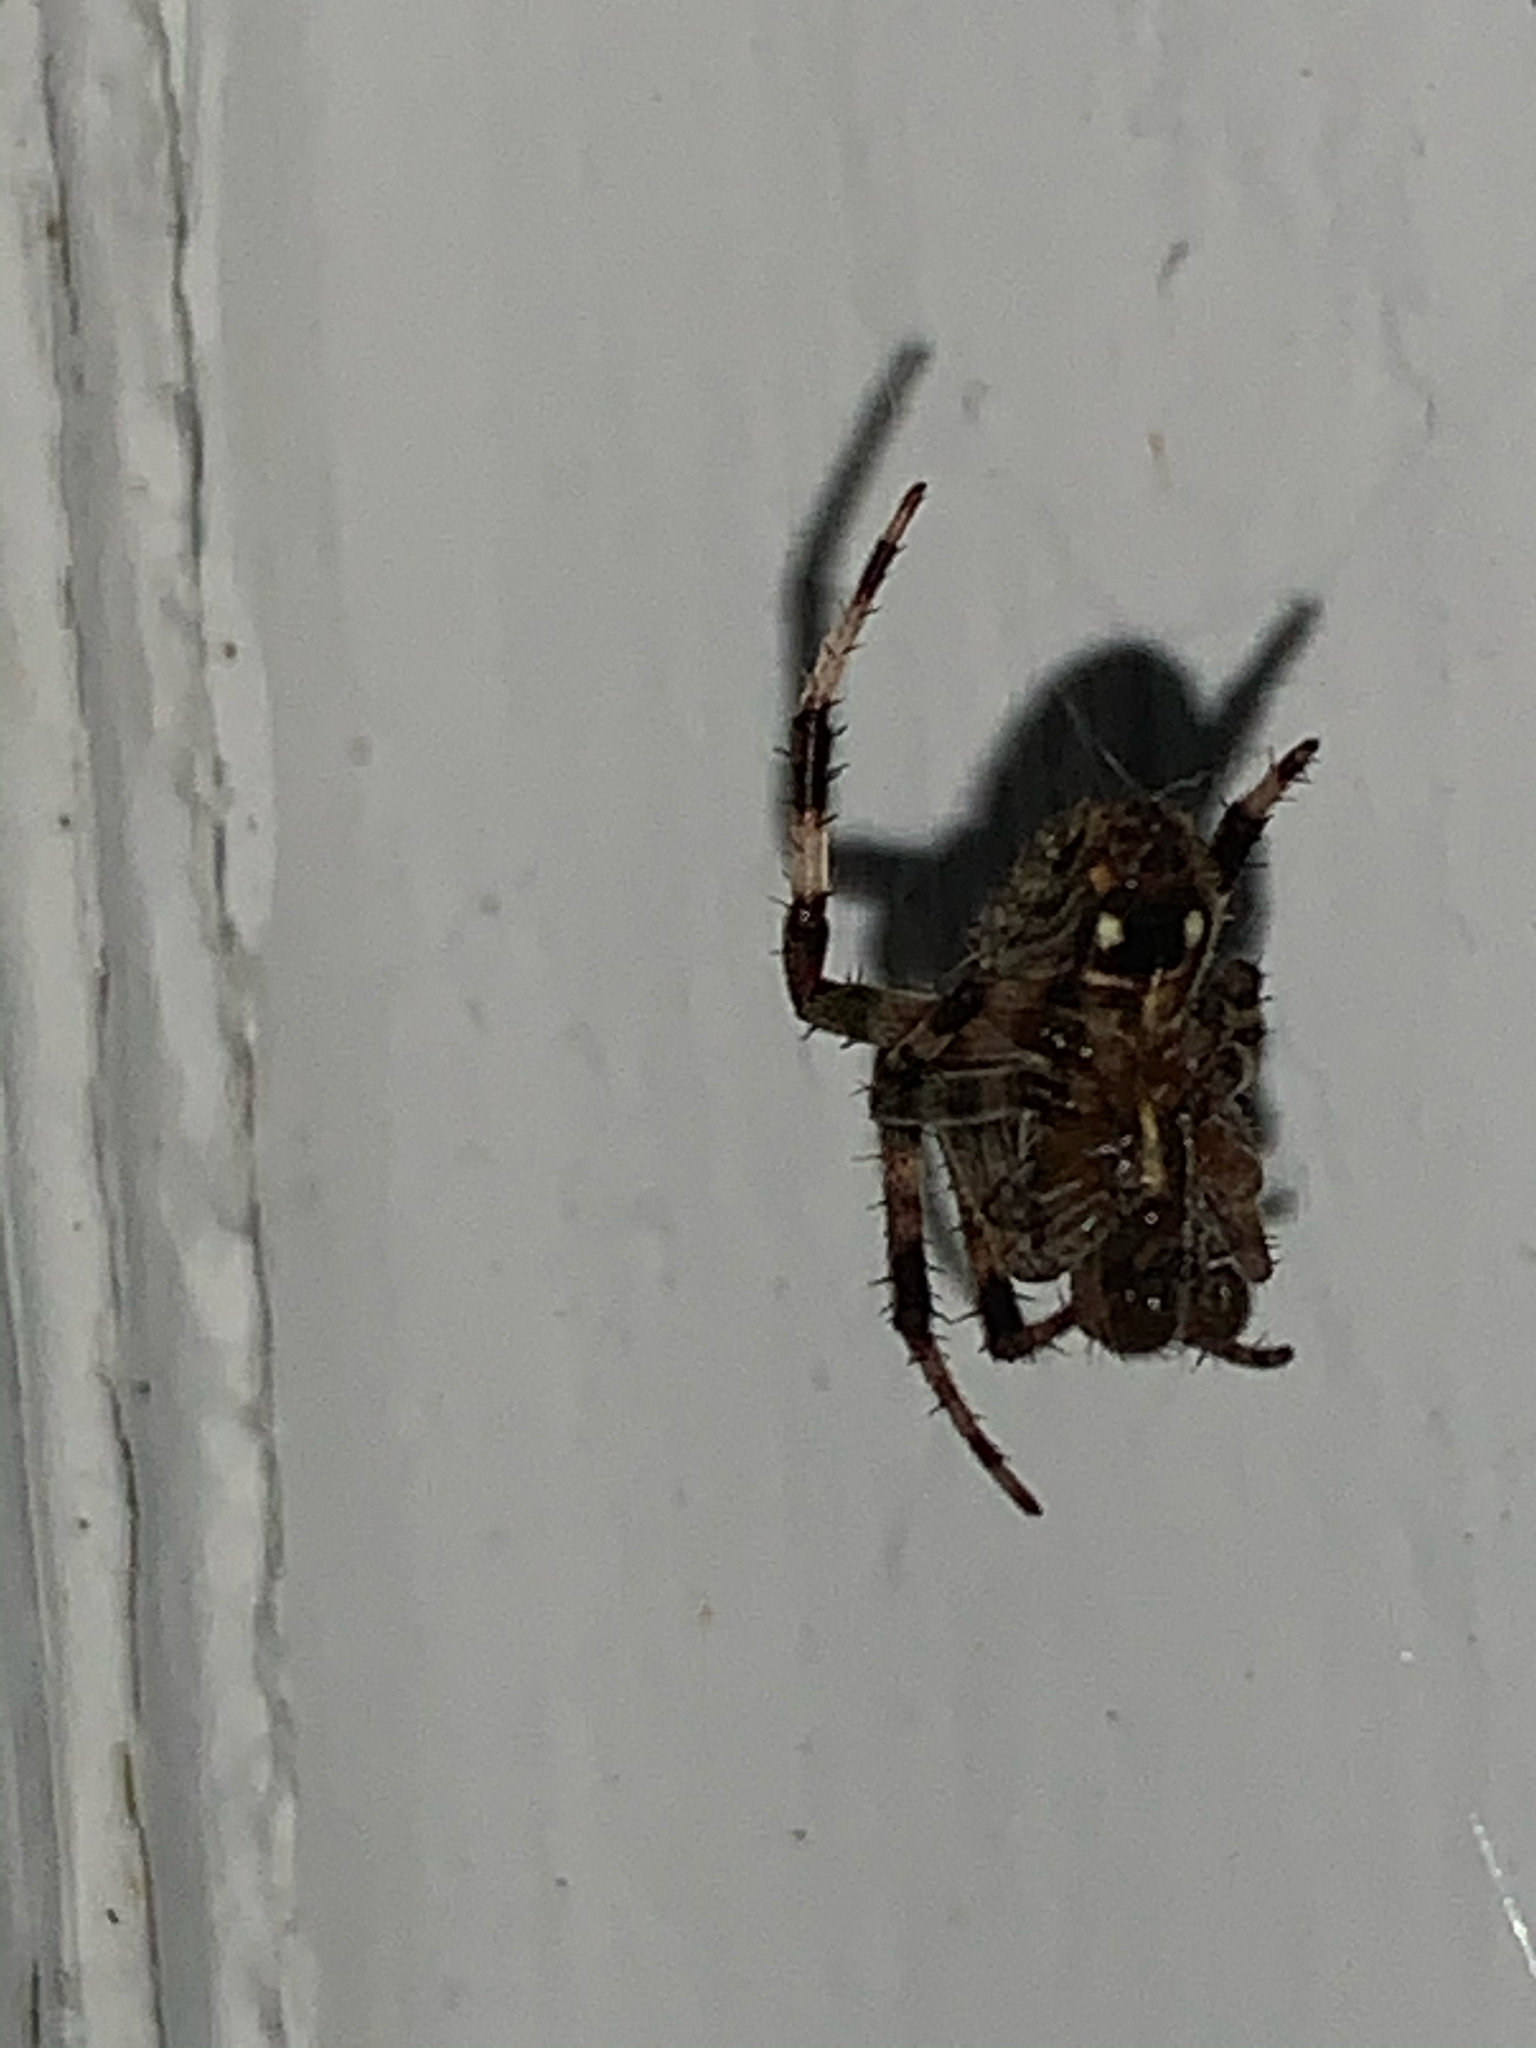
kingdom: Animalia
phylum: Arthropoda
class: Arachnida
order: Araneae
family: Araneidae
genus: Neoscona
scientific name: Neoscona
